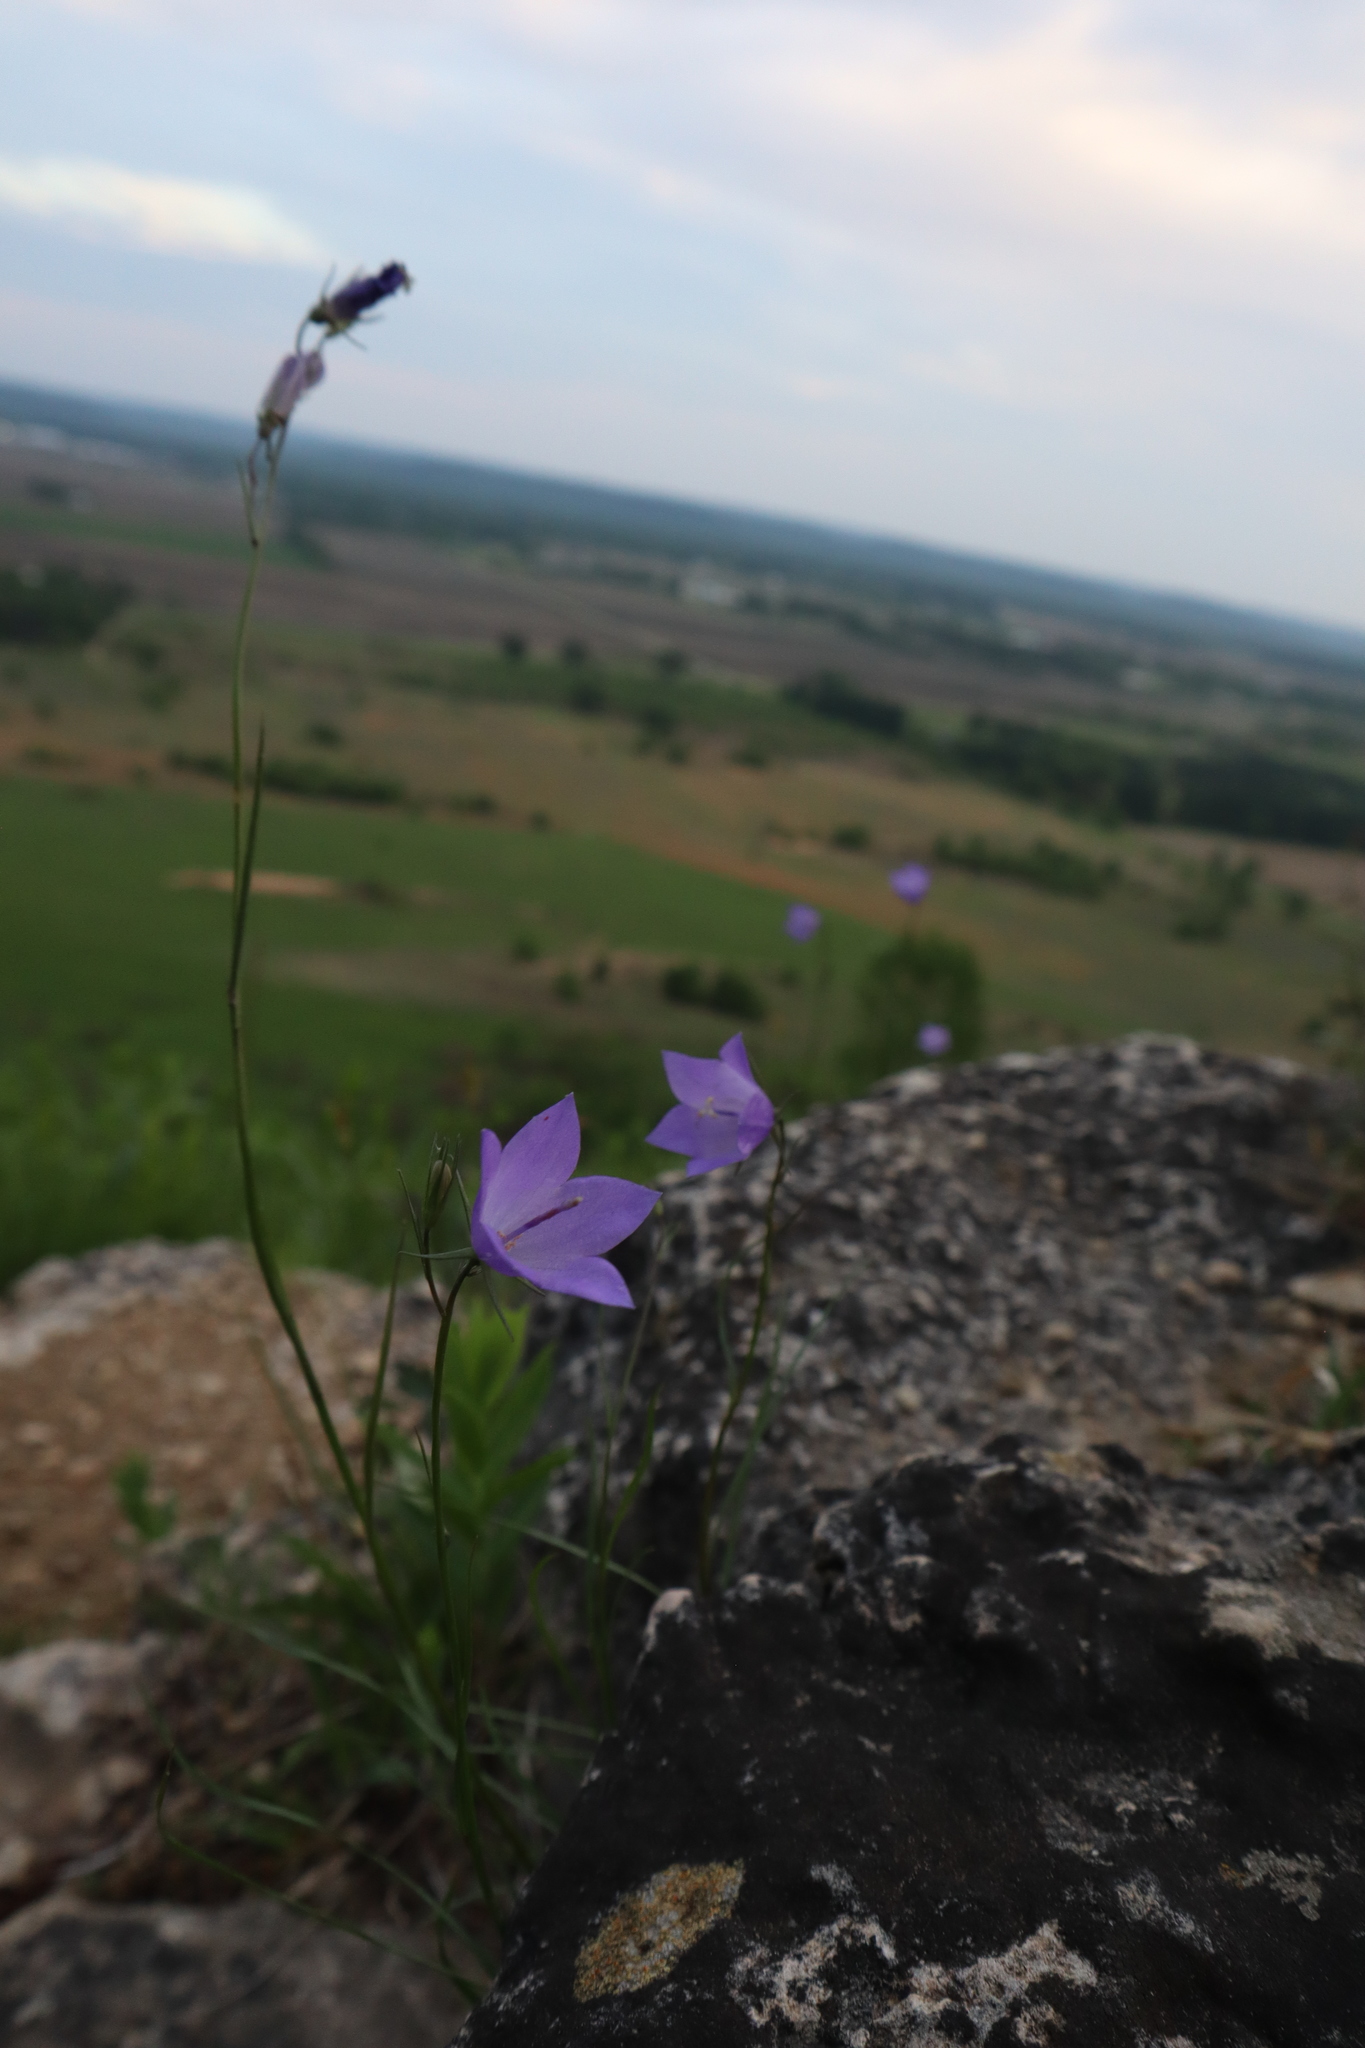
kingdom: Plantae
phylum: Tracheophyta
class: Magnoliopsida
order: Asterales
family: Campanulaceae
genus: Campanula
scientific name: Campanula intercedens
